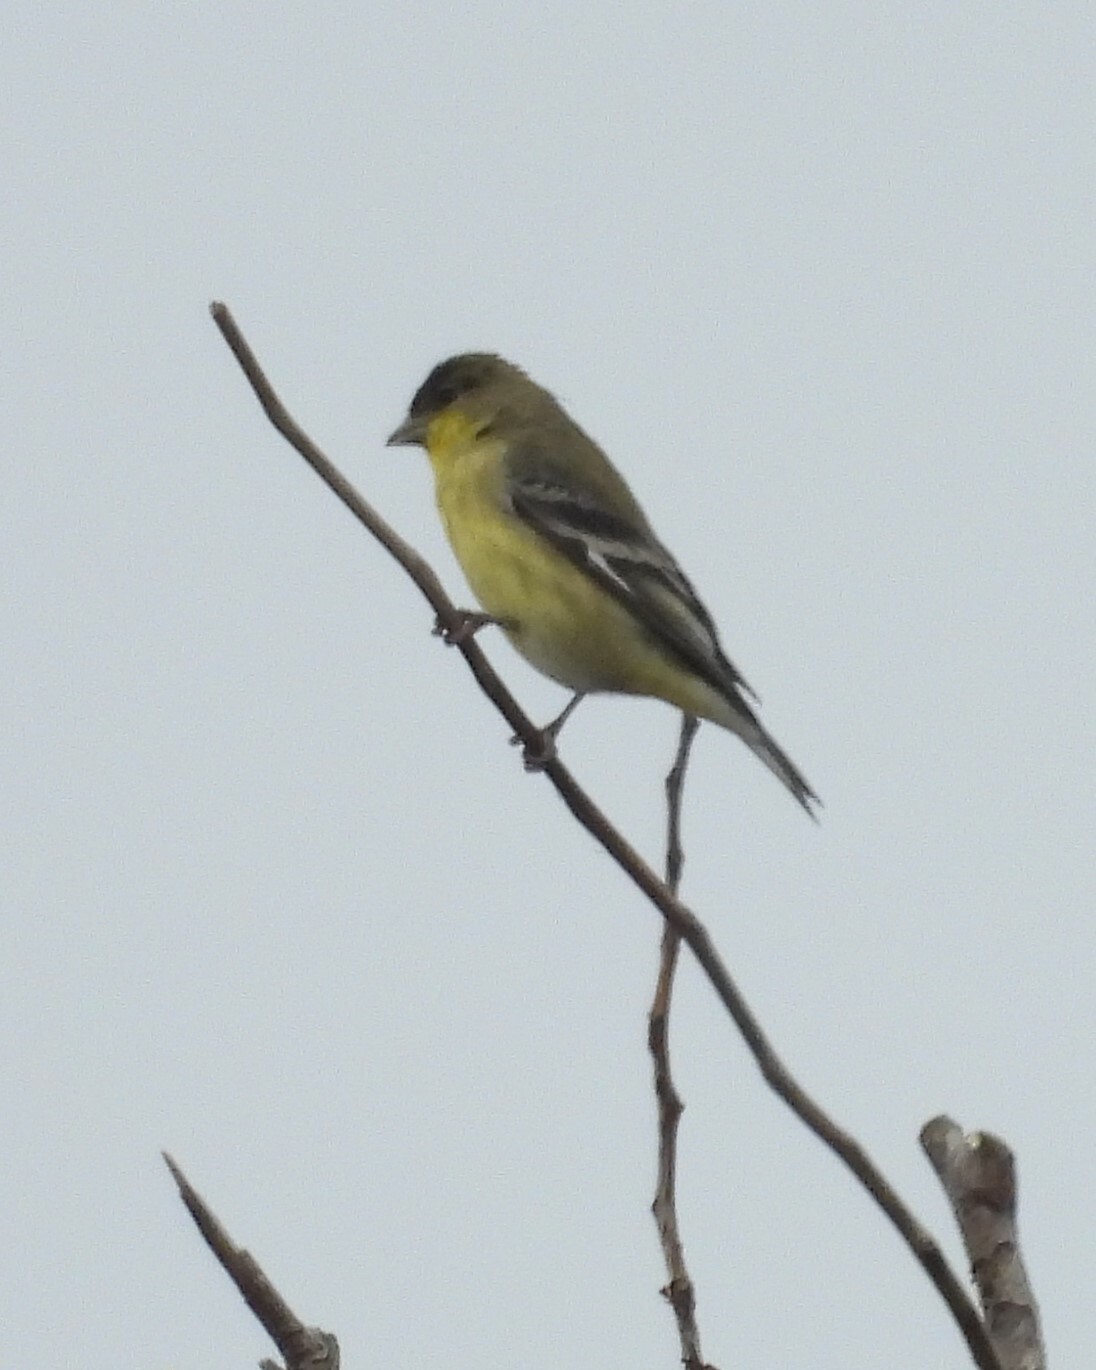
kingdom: Animalia
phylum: Chordata
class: Aves
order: Passeriformes
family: Fringillidae
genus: Spinus
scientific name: Spinus psaltria
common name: Lesser goldfinch
